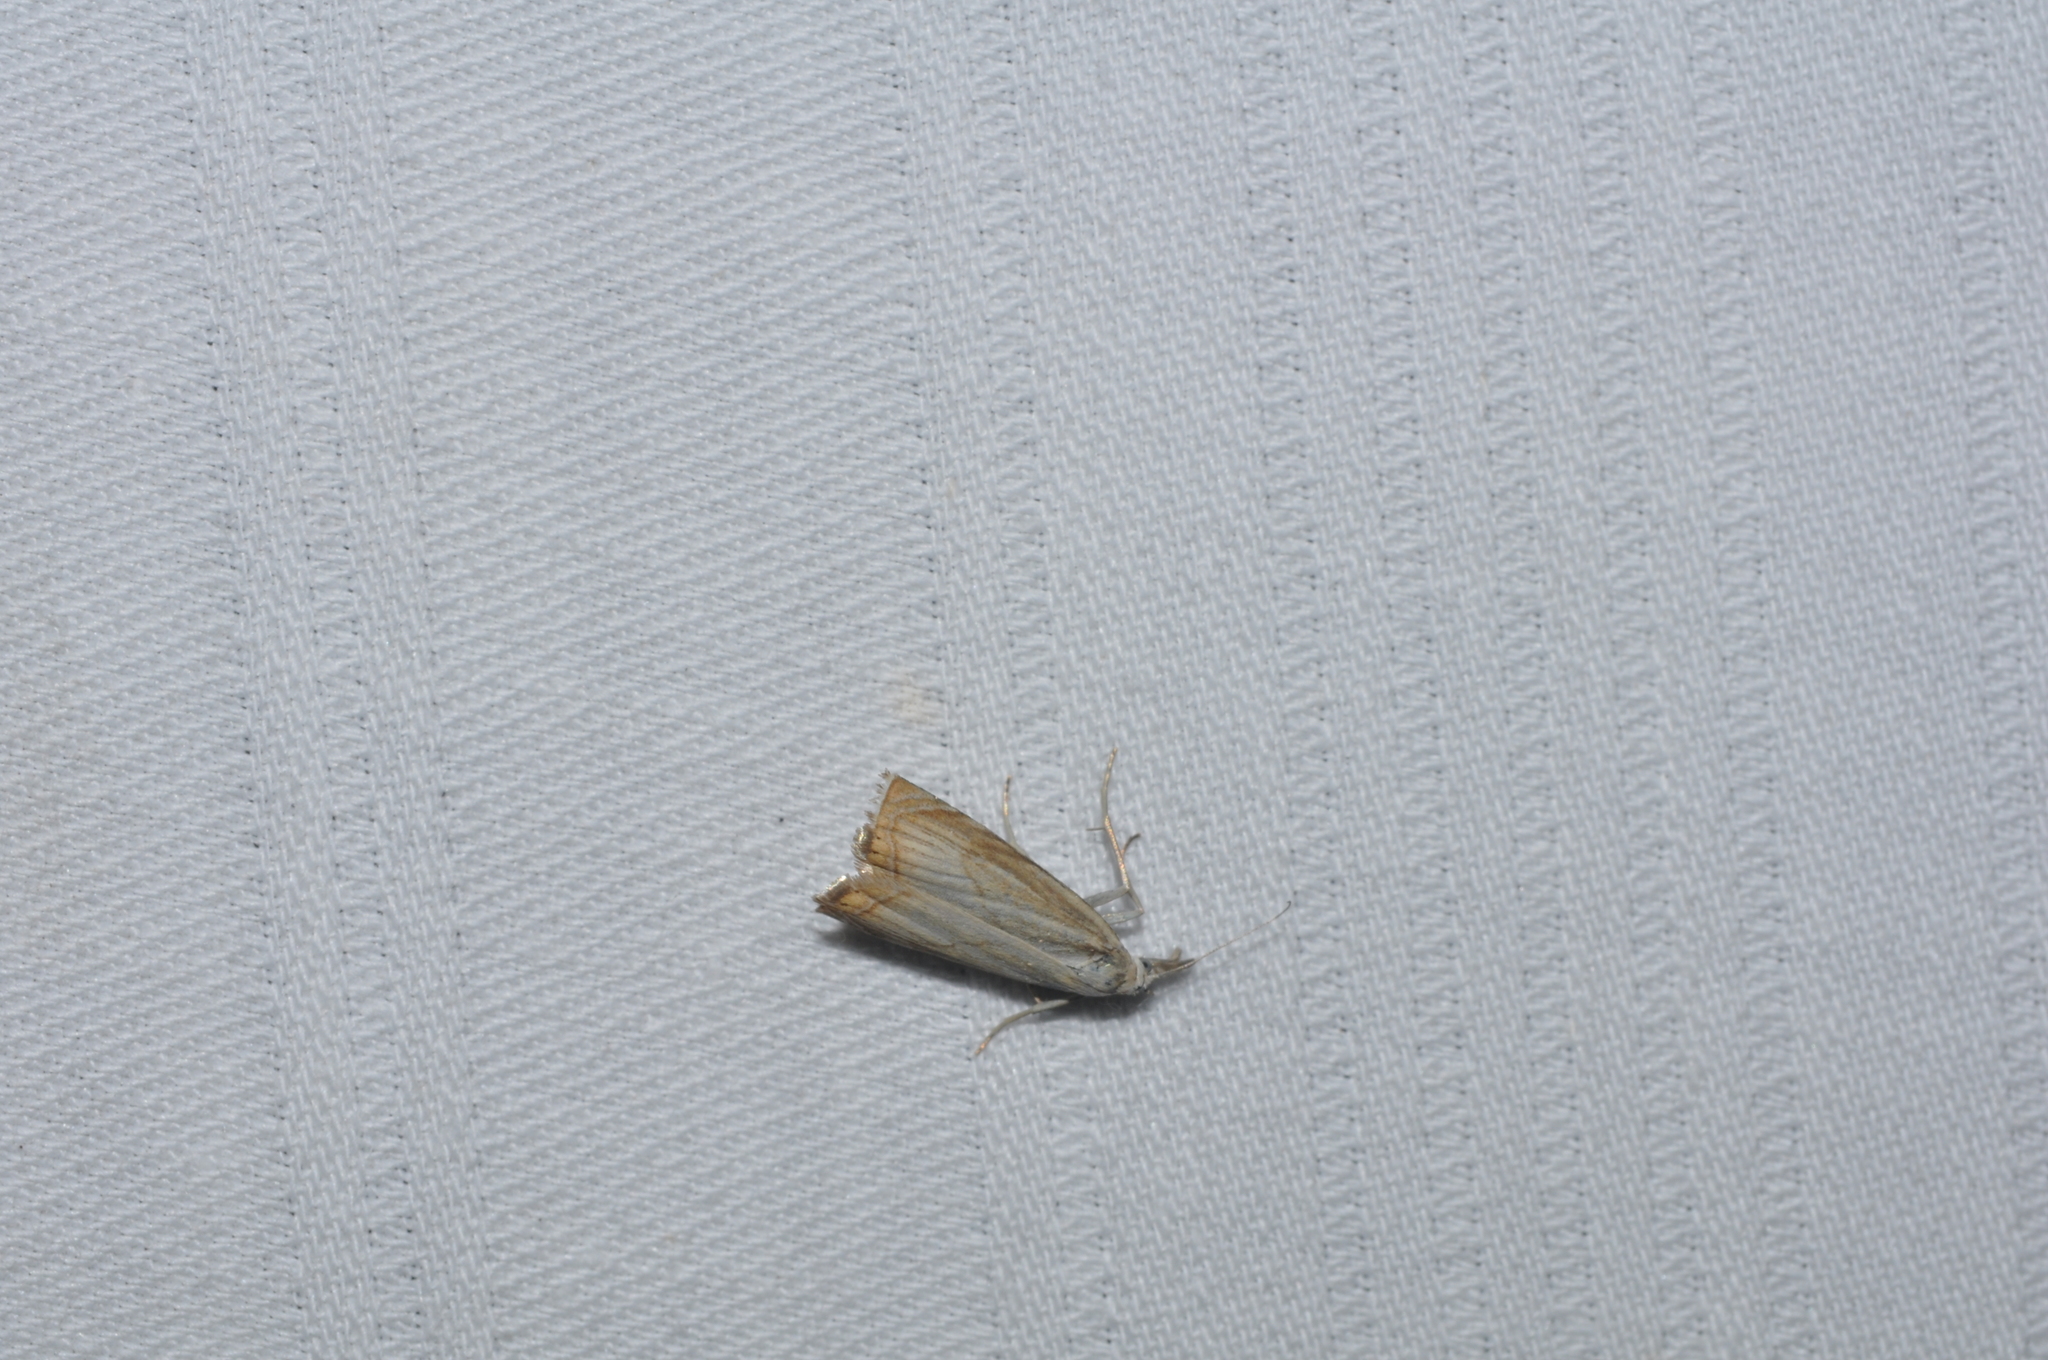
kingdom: Animalia
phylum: Arthropoda
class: Insecta
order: Lepidoptera
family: Crambidae
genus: Chrysoteuchia
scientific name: Chrysoteuchia culmella
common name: Garden grass-veneer
